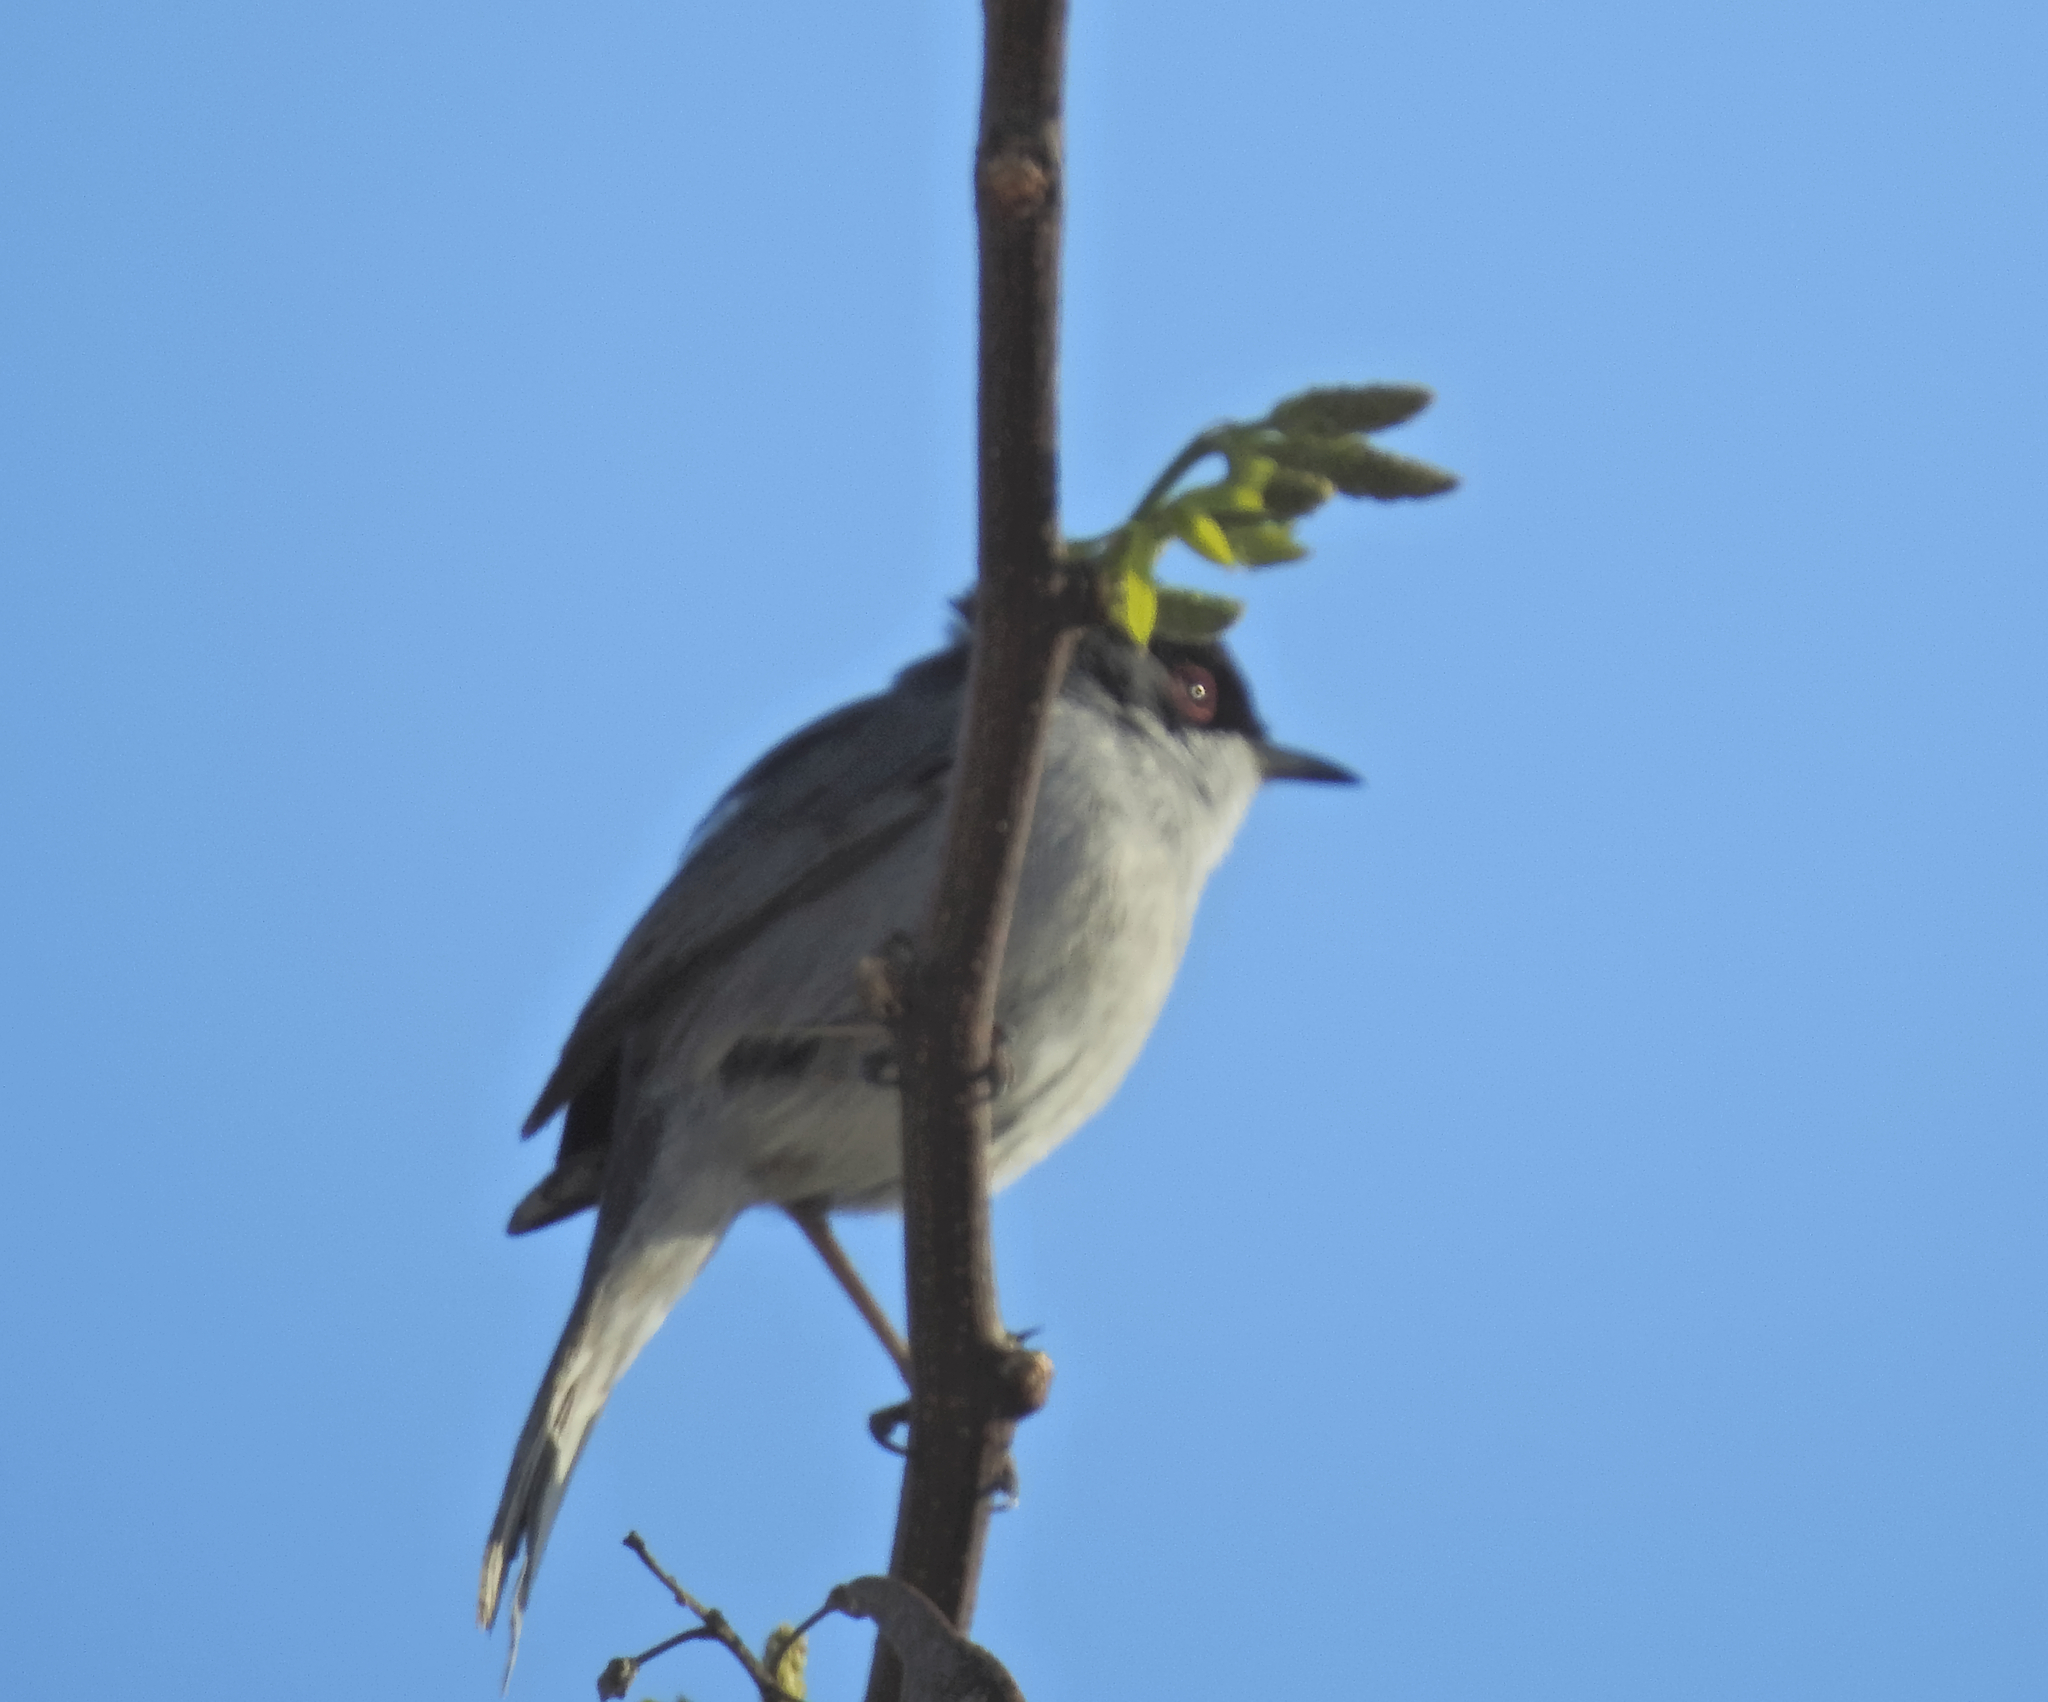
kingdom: Animalia
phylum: Chordata
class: Aves
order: Passeriformes
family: Sylviidae
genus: Curruca
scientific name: Curruca melanocephala
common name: Sardinian warbler
